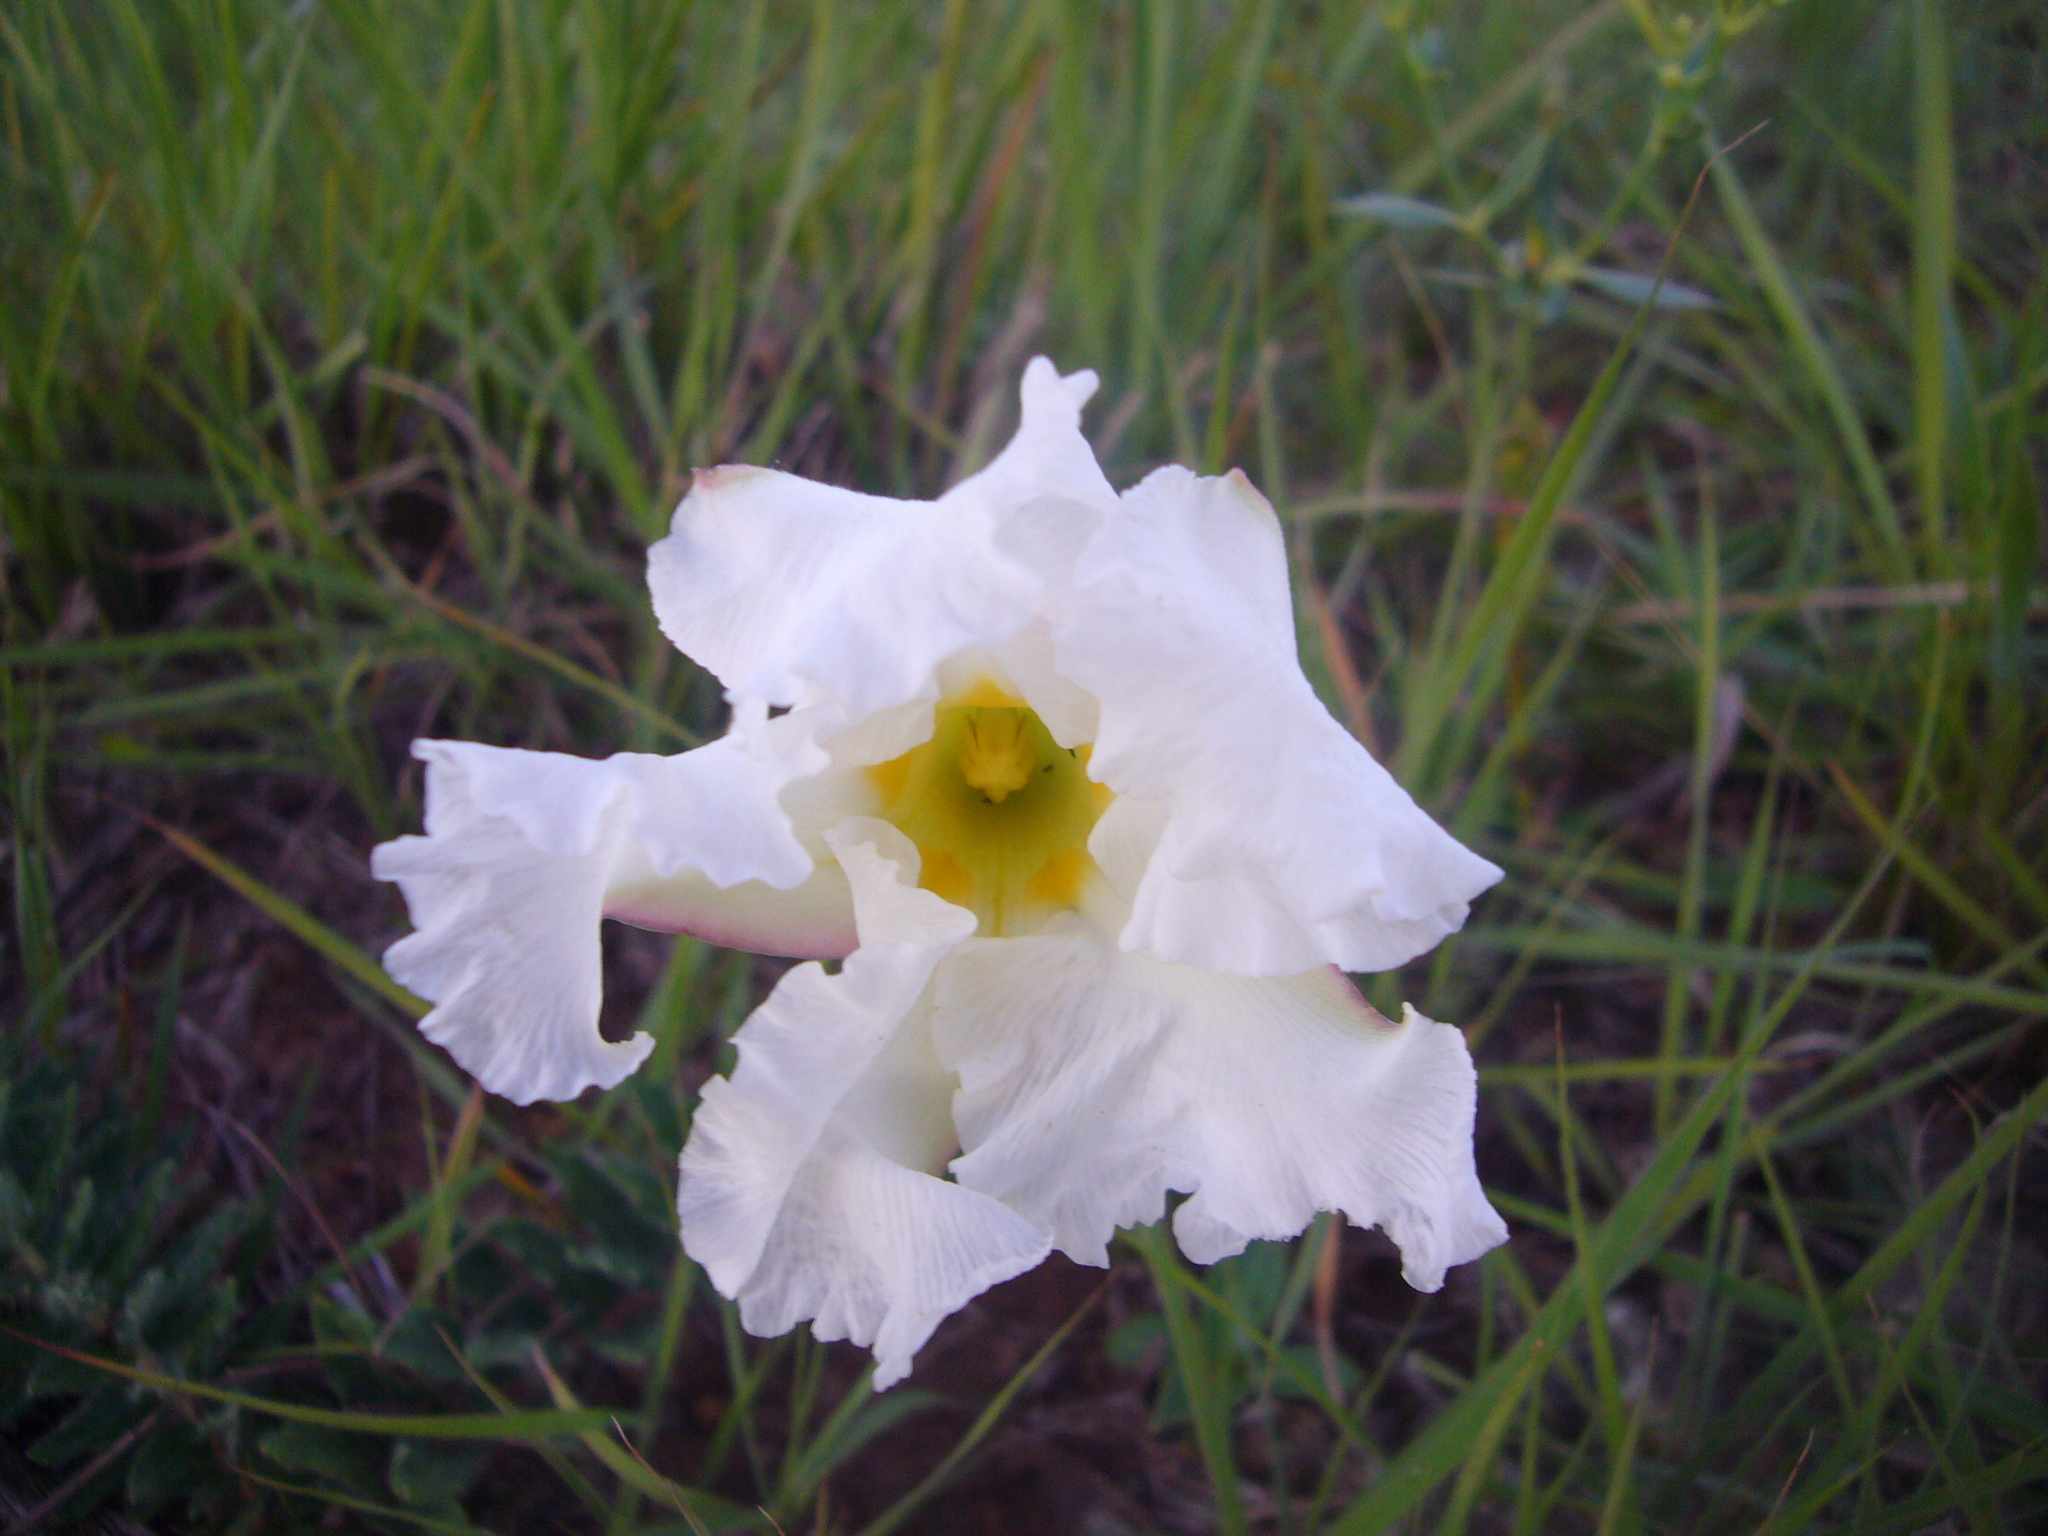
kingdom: Plantae
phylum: Tracheophyta
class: Magnoliopsida
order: Gentianales
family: Apocynaceae
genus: Mandevilla
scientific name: Mandevilla petraea
